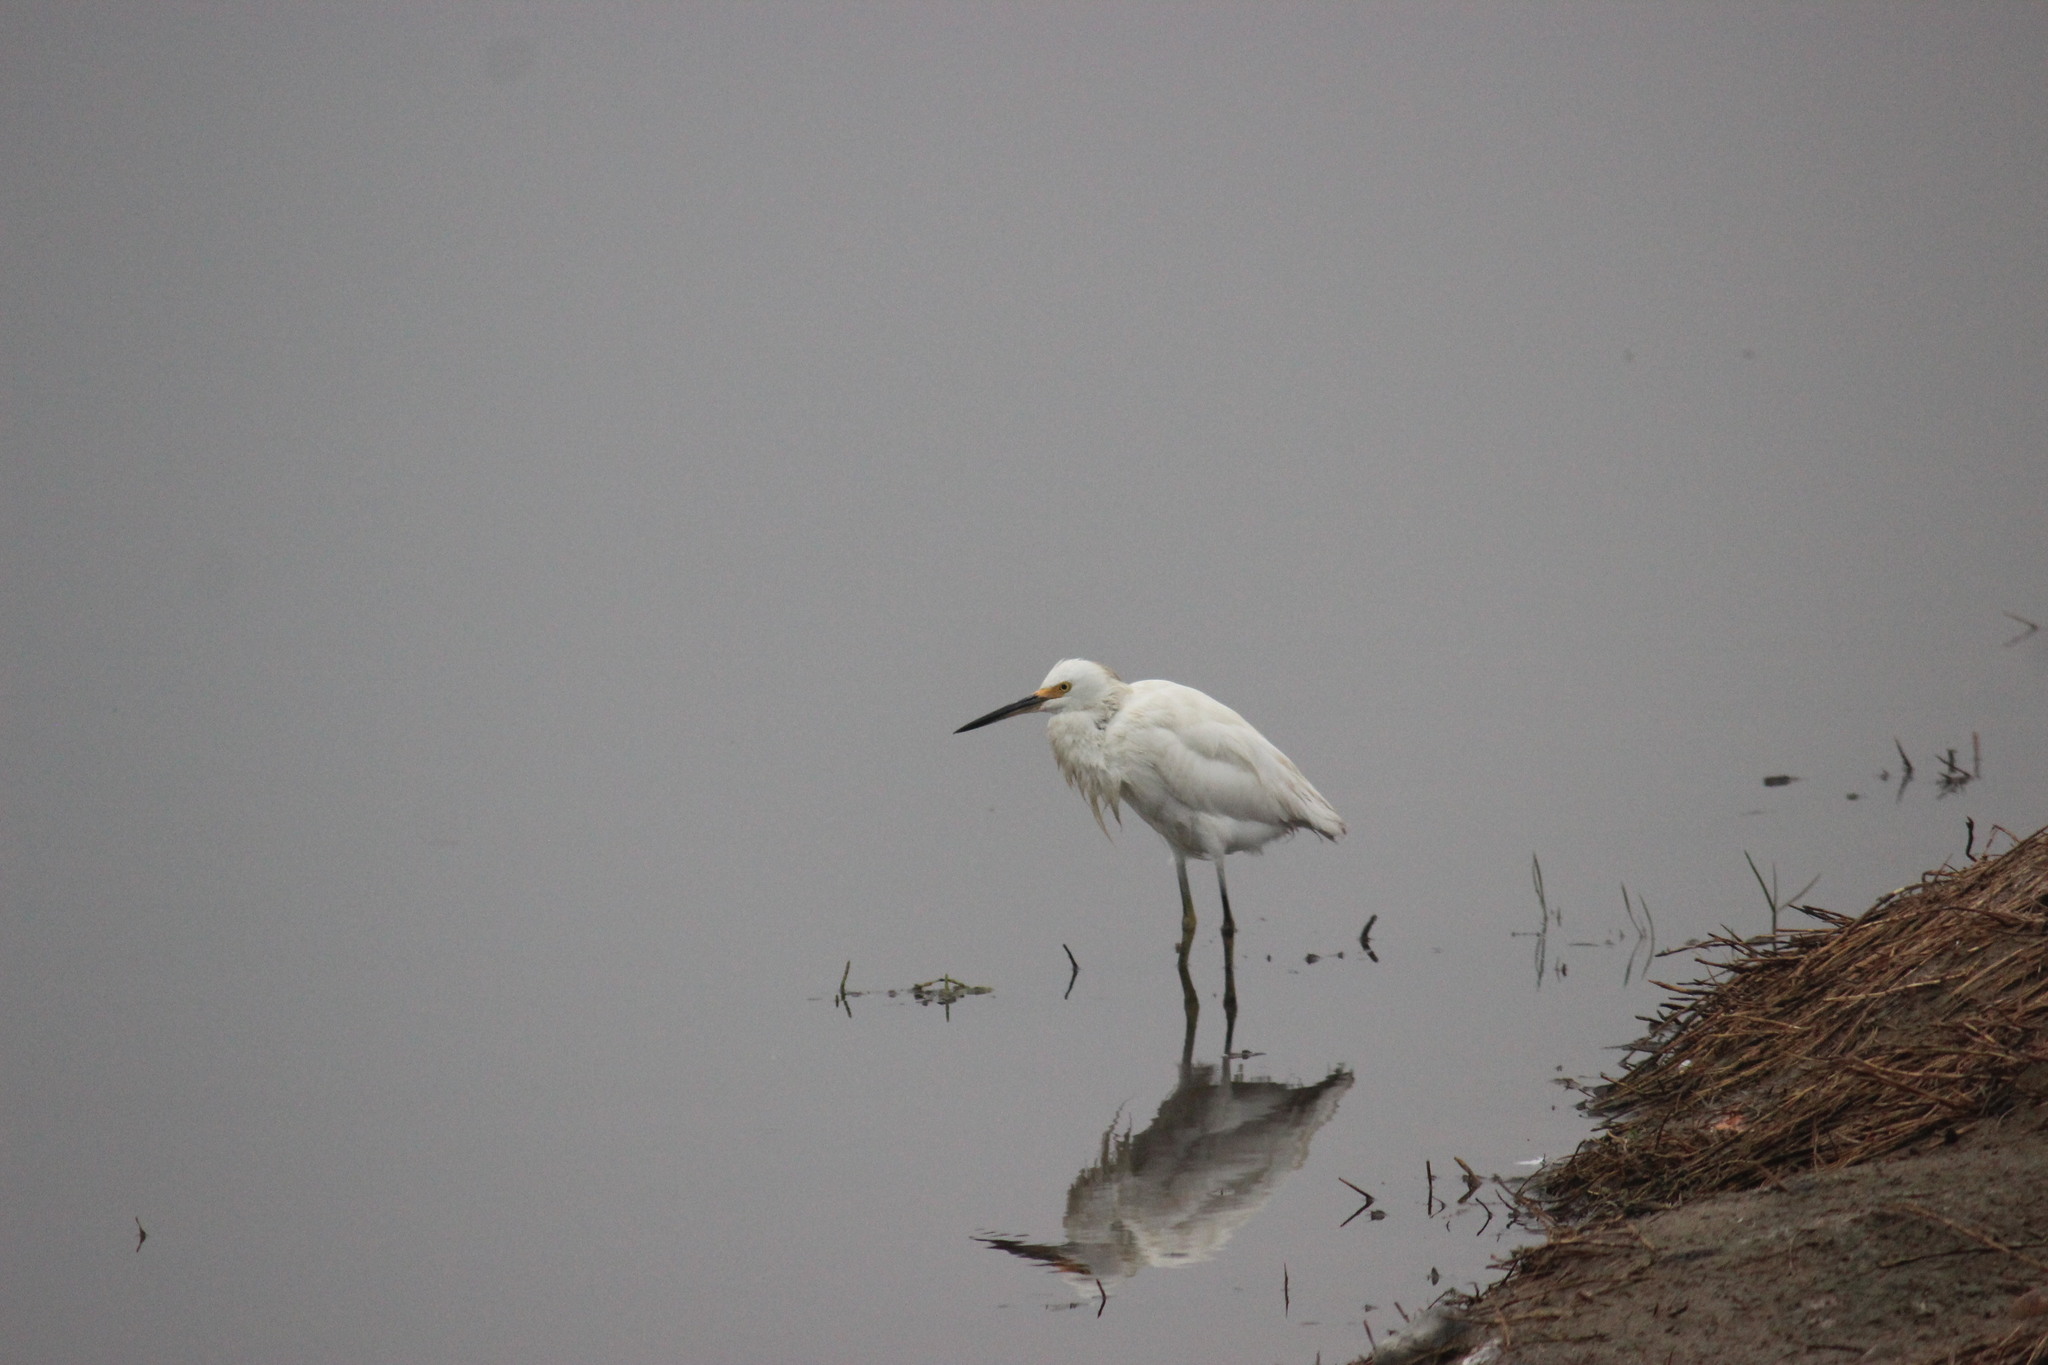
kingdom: Animalia
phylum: Chordata
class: Aves
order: Pelecaniformes
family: Ardeidae
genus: Egretta
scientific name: Egretta thula
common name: Snowy egret
